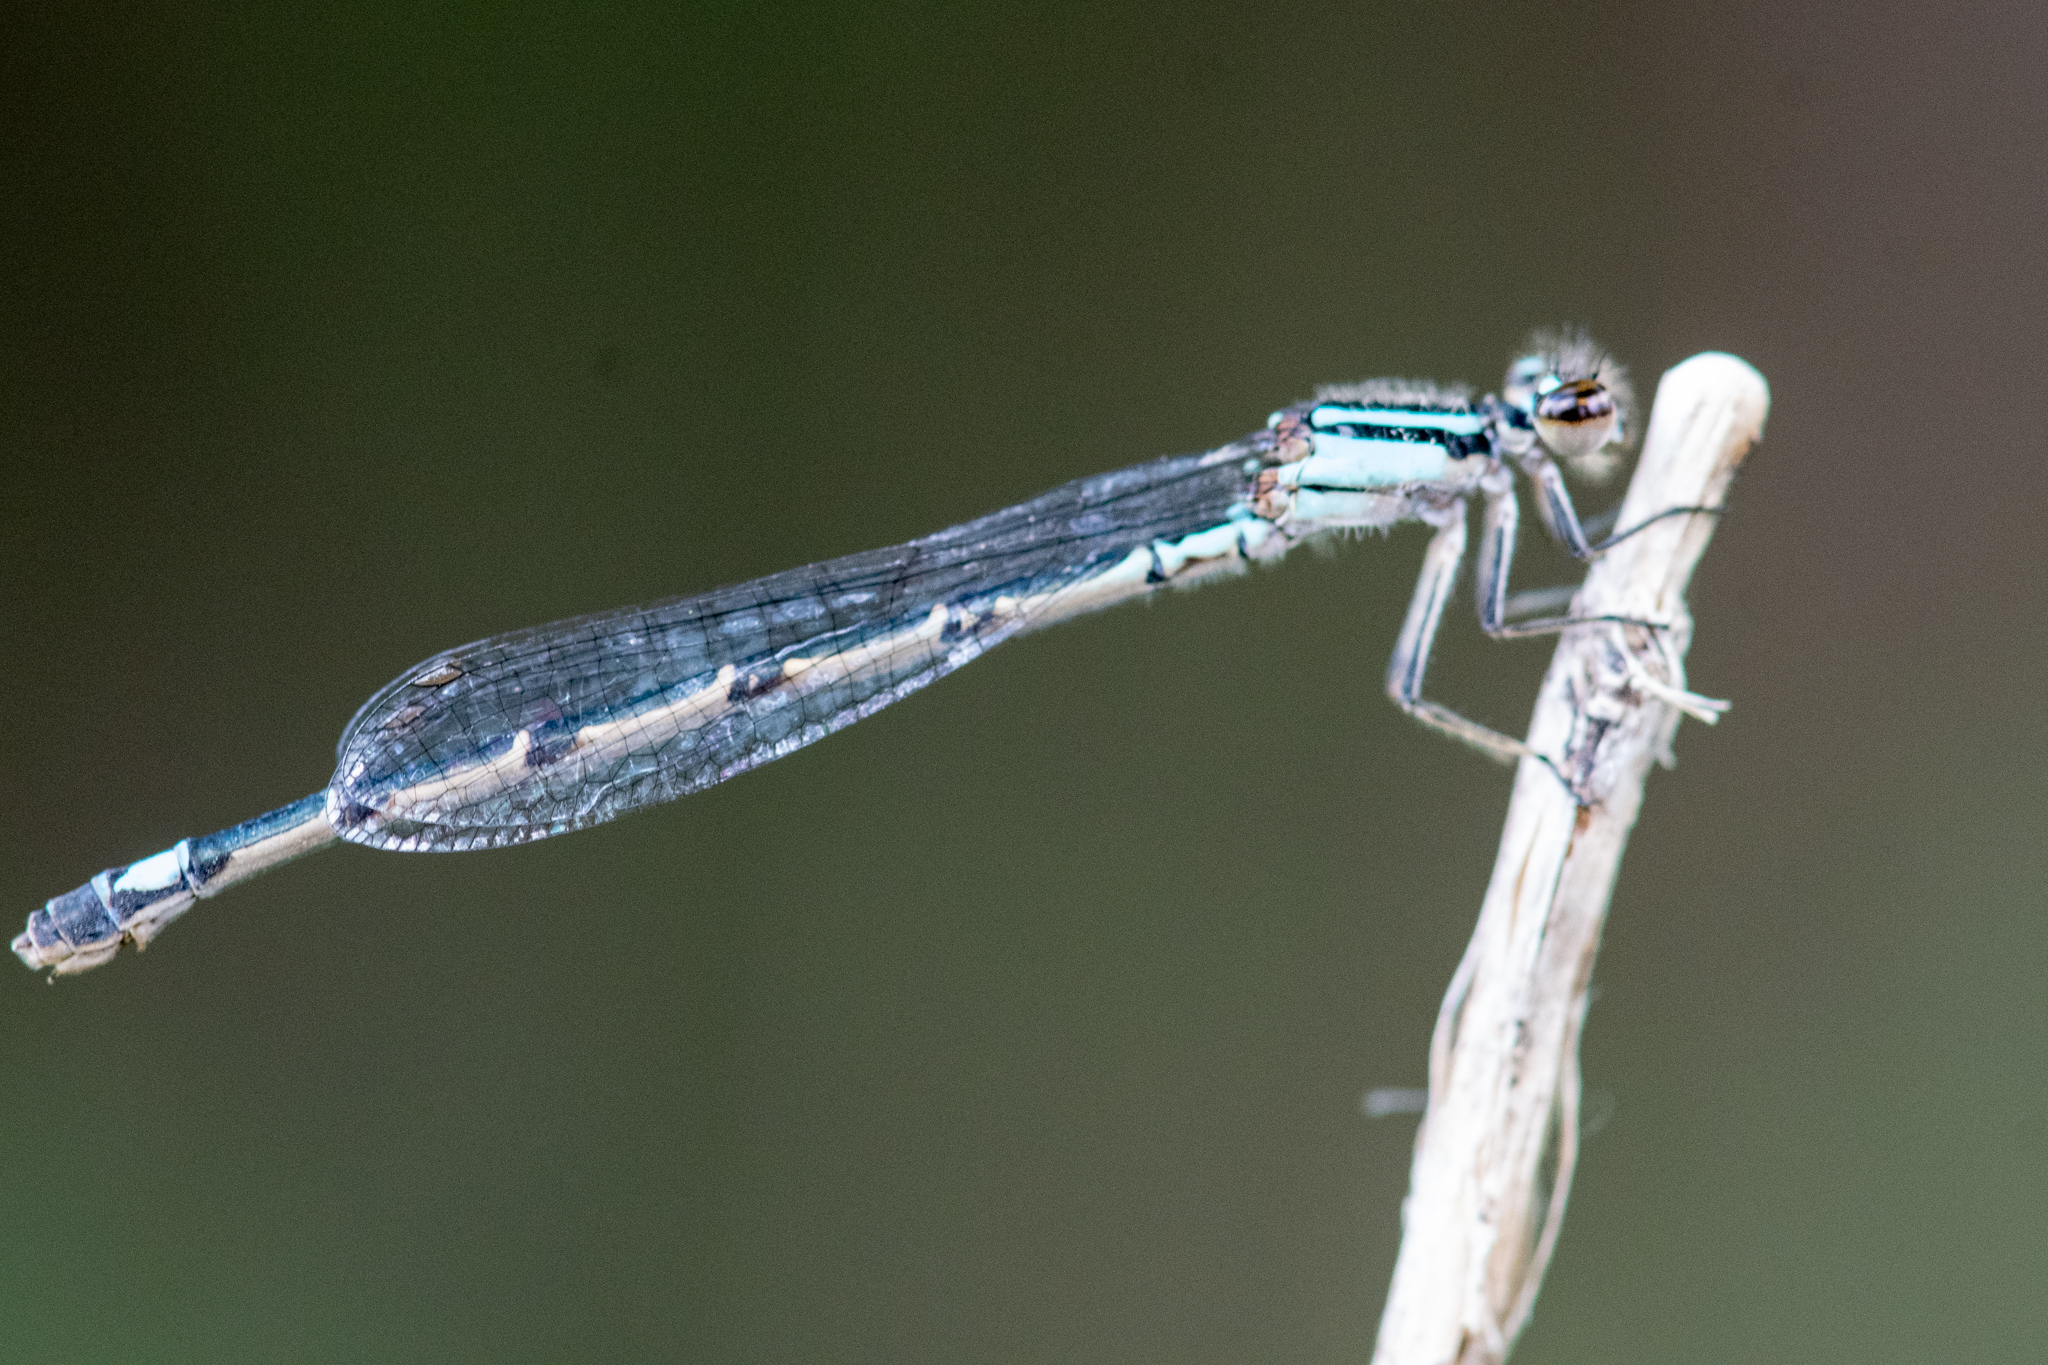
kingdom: Animalia
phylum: Arthropoda
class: Insecta
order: Odonata
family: Coenagrionidae
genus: Enallagma
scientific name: Enallagma geminatum
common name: Skimming bluet
